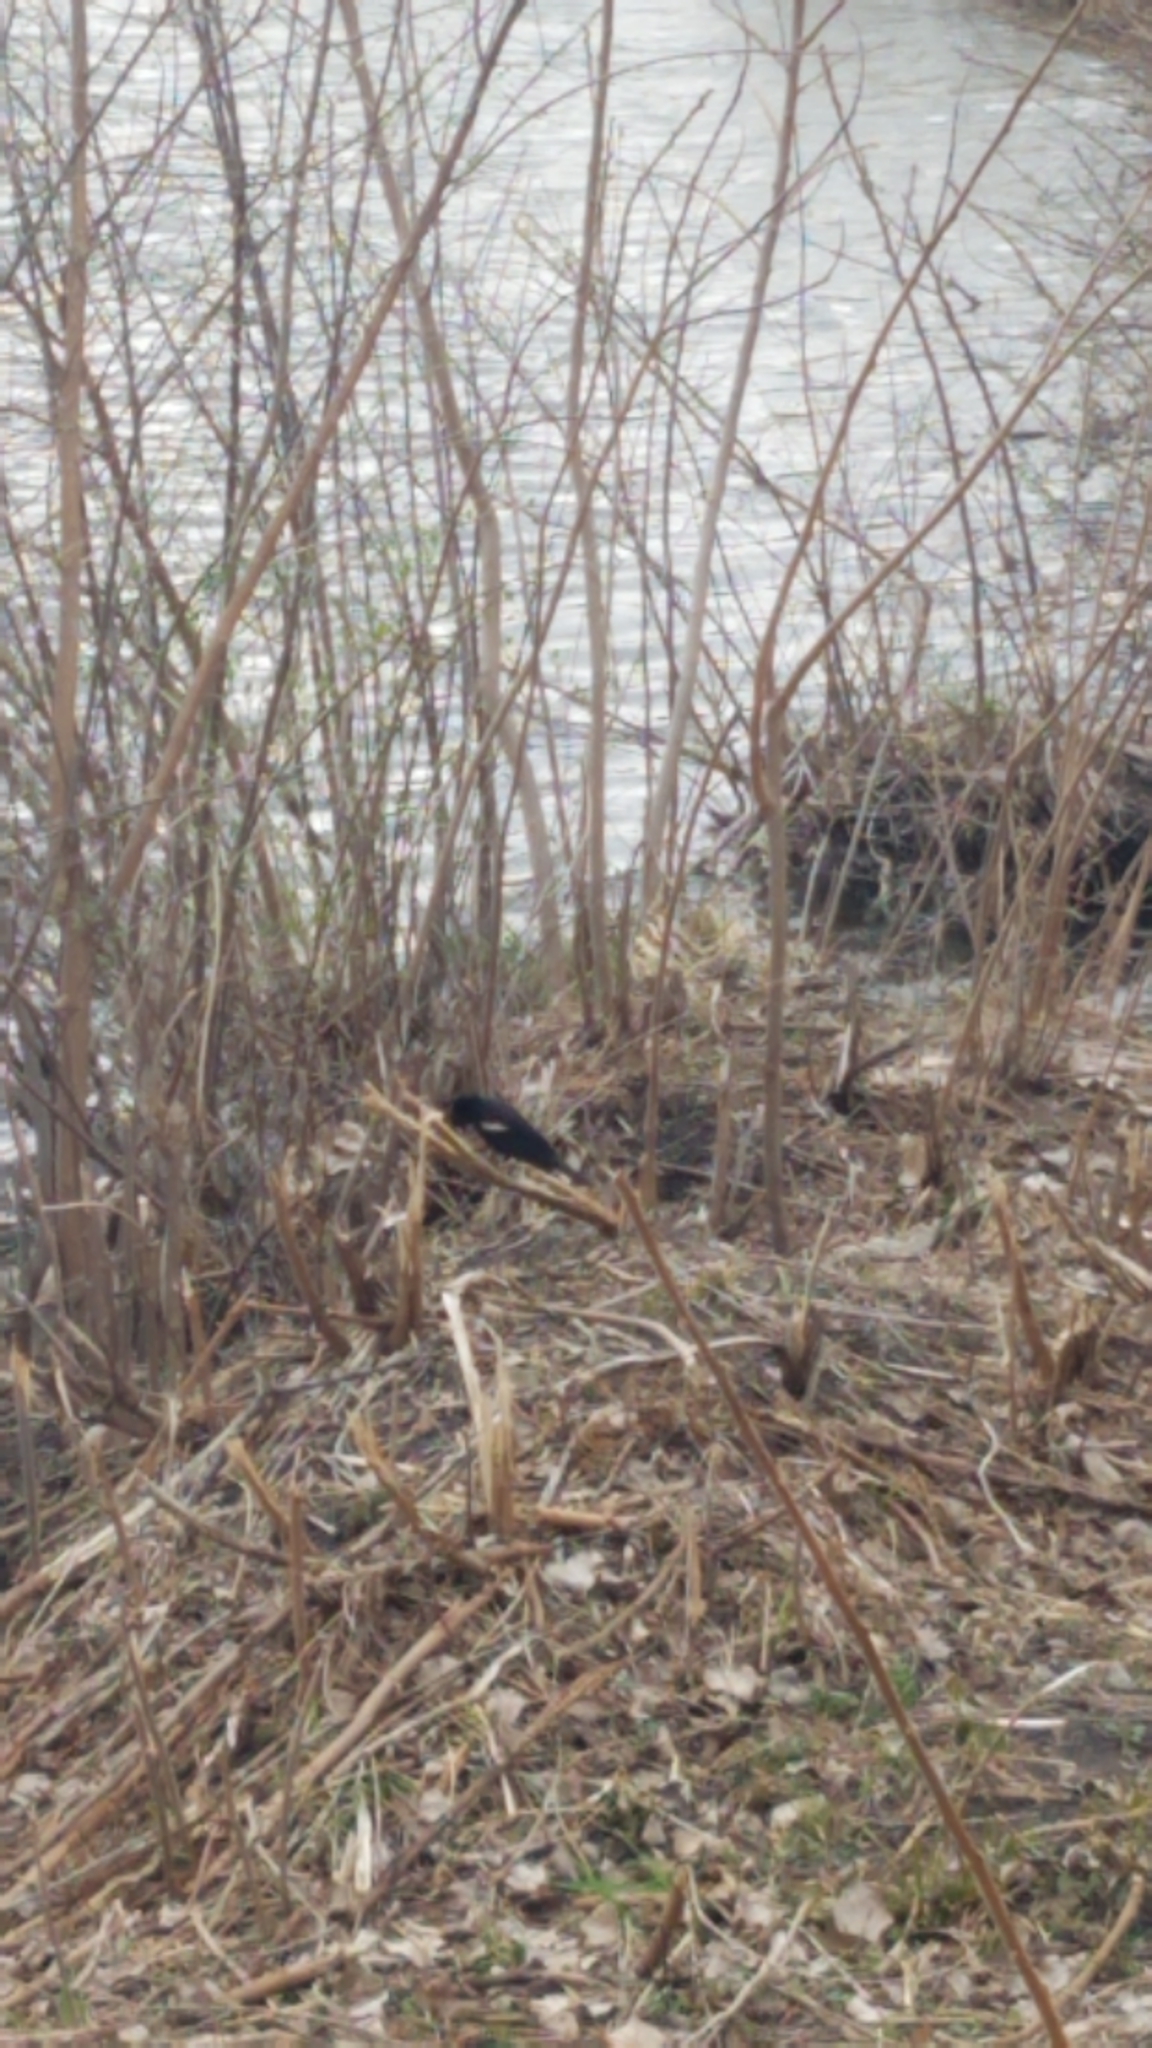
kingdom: Animalia
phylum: Chordata
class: Aves
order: Passeriformes
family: Icteridae
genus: Agelaius
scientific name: Agelaius phoeniceus
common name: Red-winged blackbird
